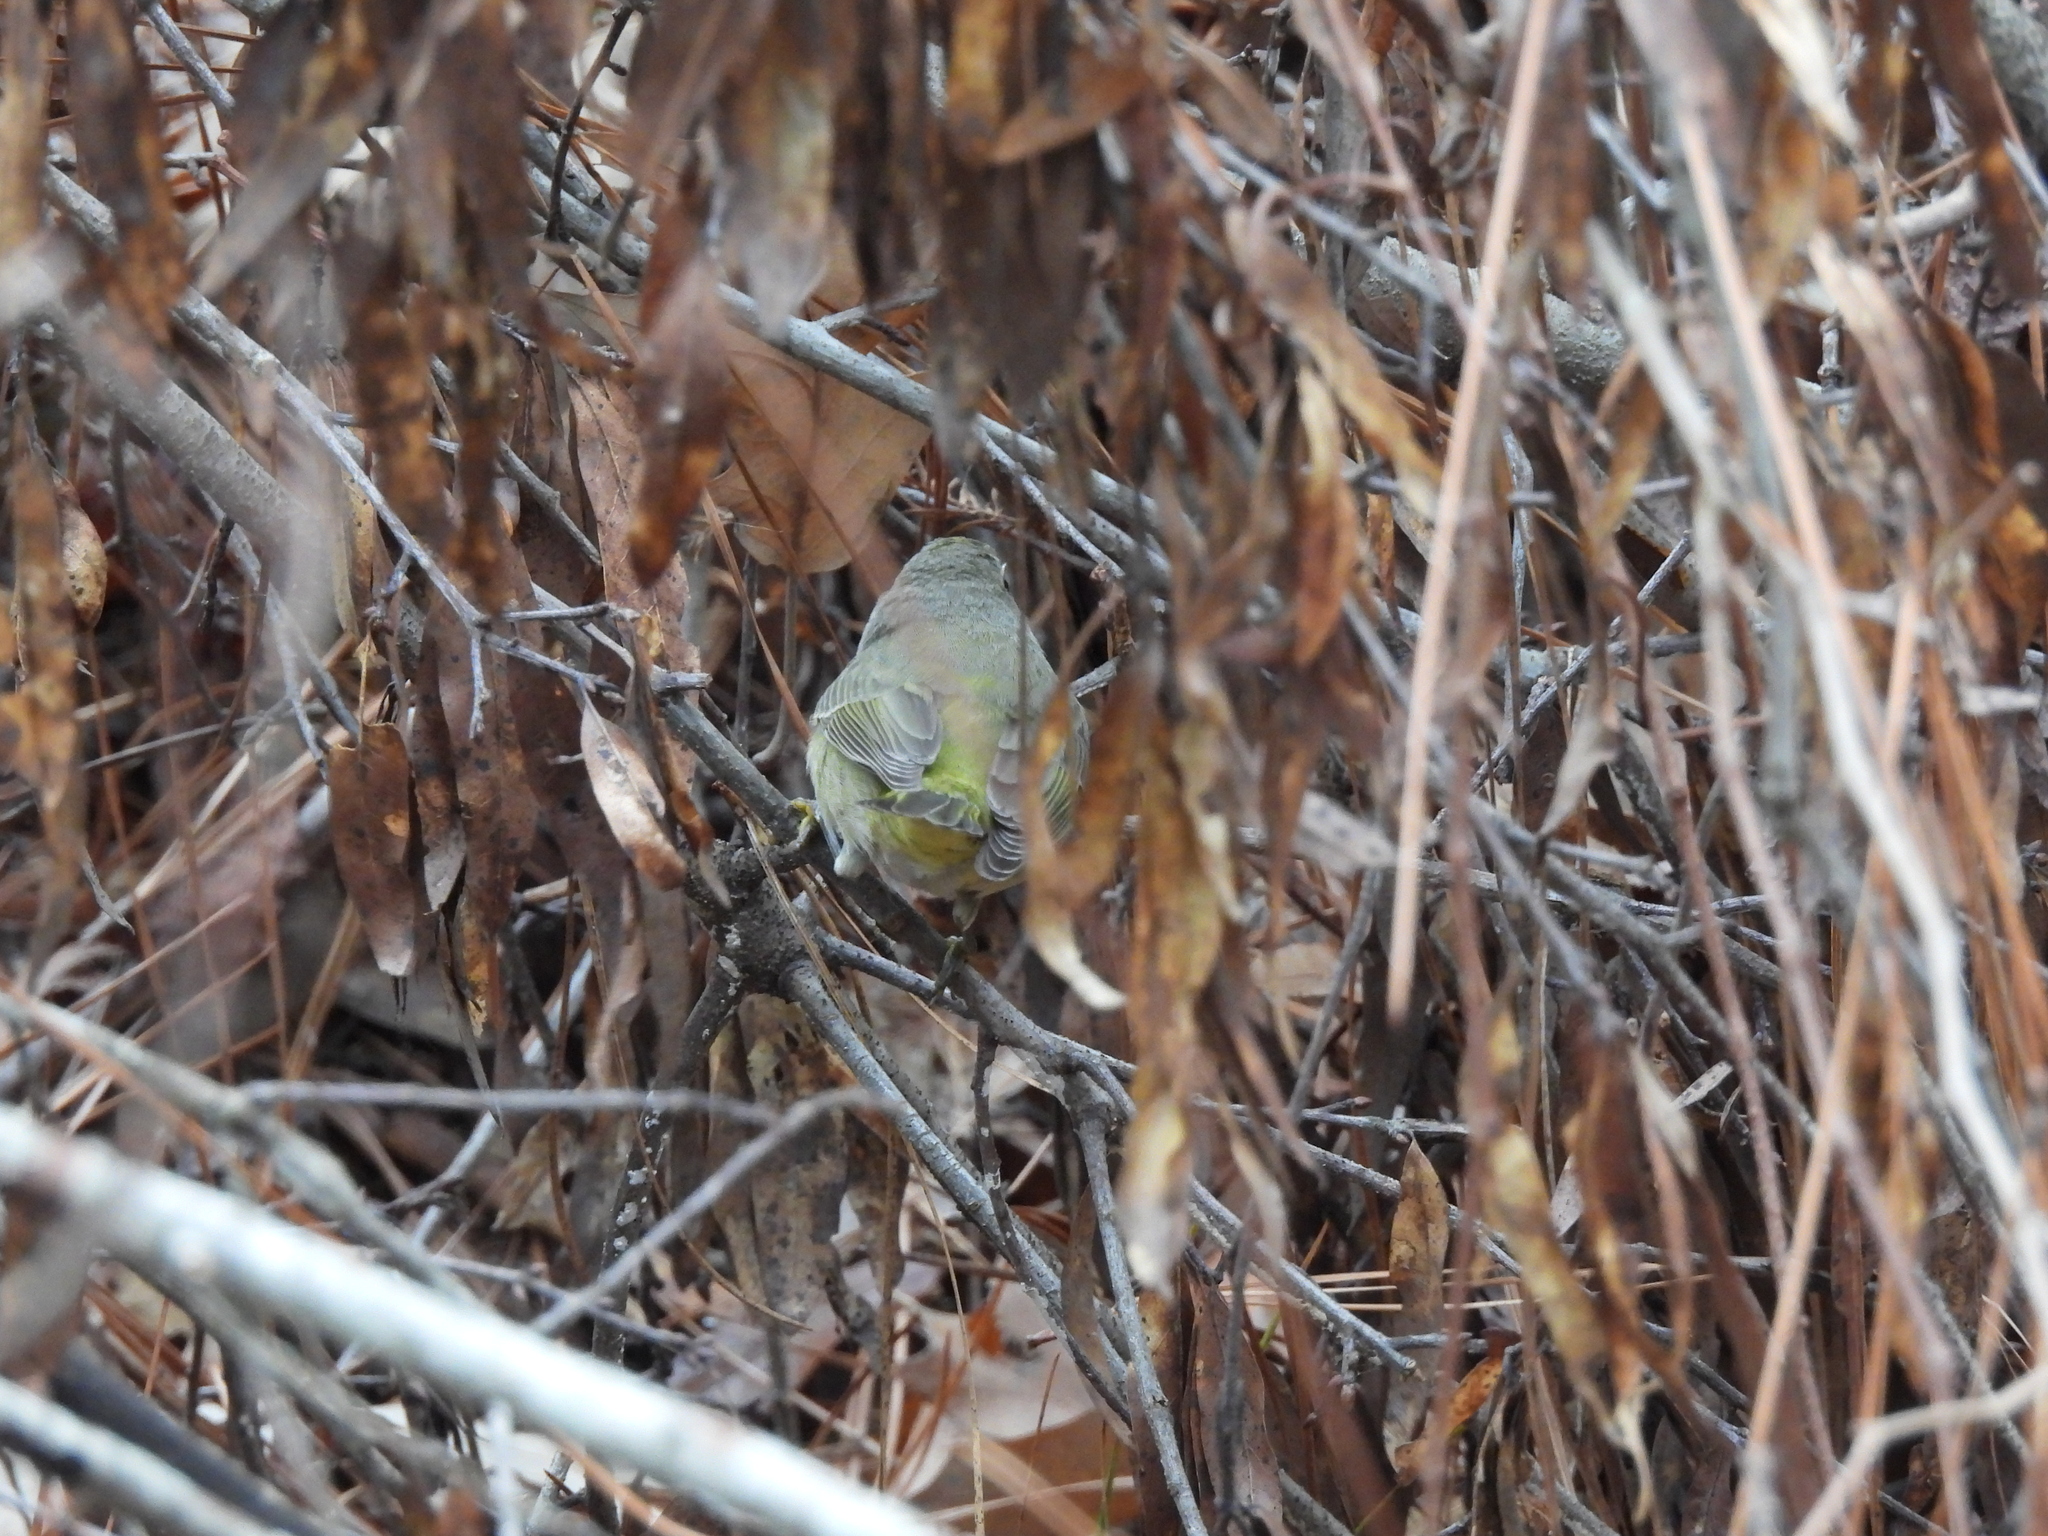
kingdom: Animalia
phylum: Chordata
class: Aves
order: Passeriformes
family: Parulidae
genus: Leiothlypis
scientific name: Leiothlypis celata
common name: Orange-crowned warbler
